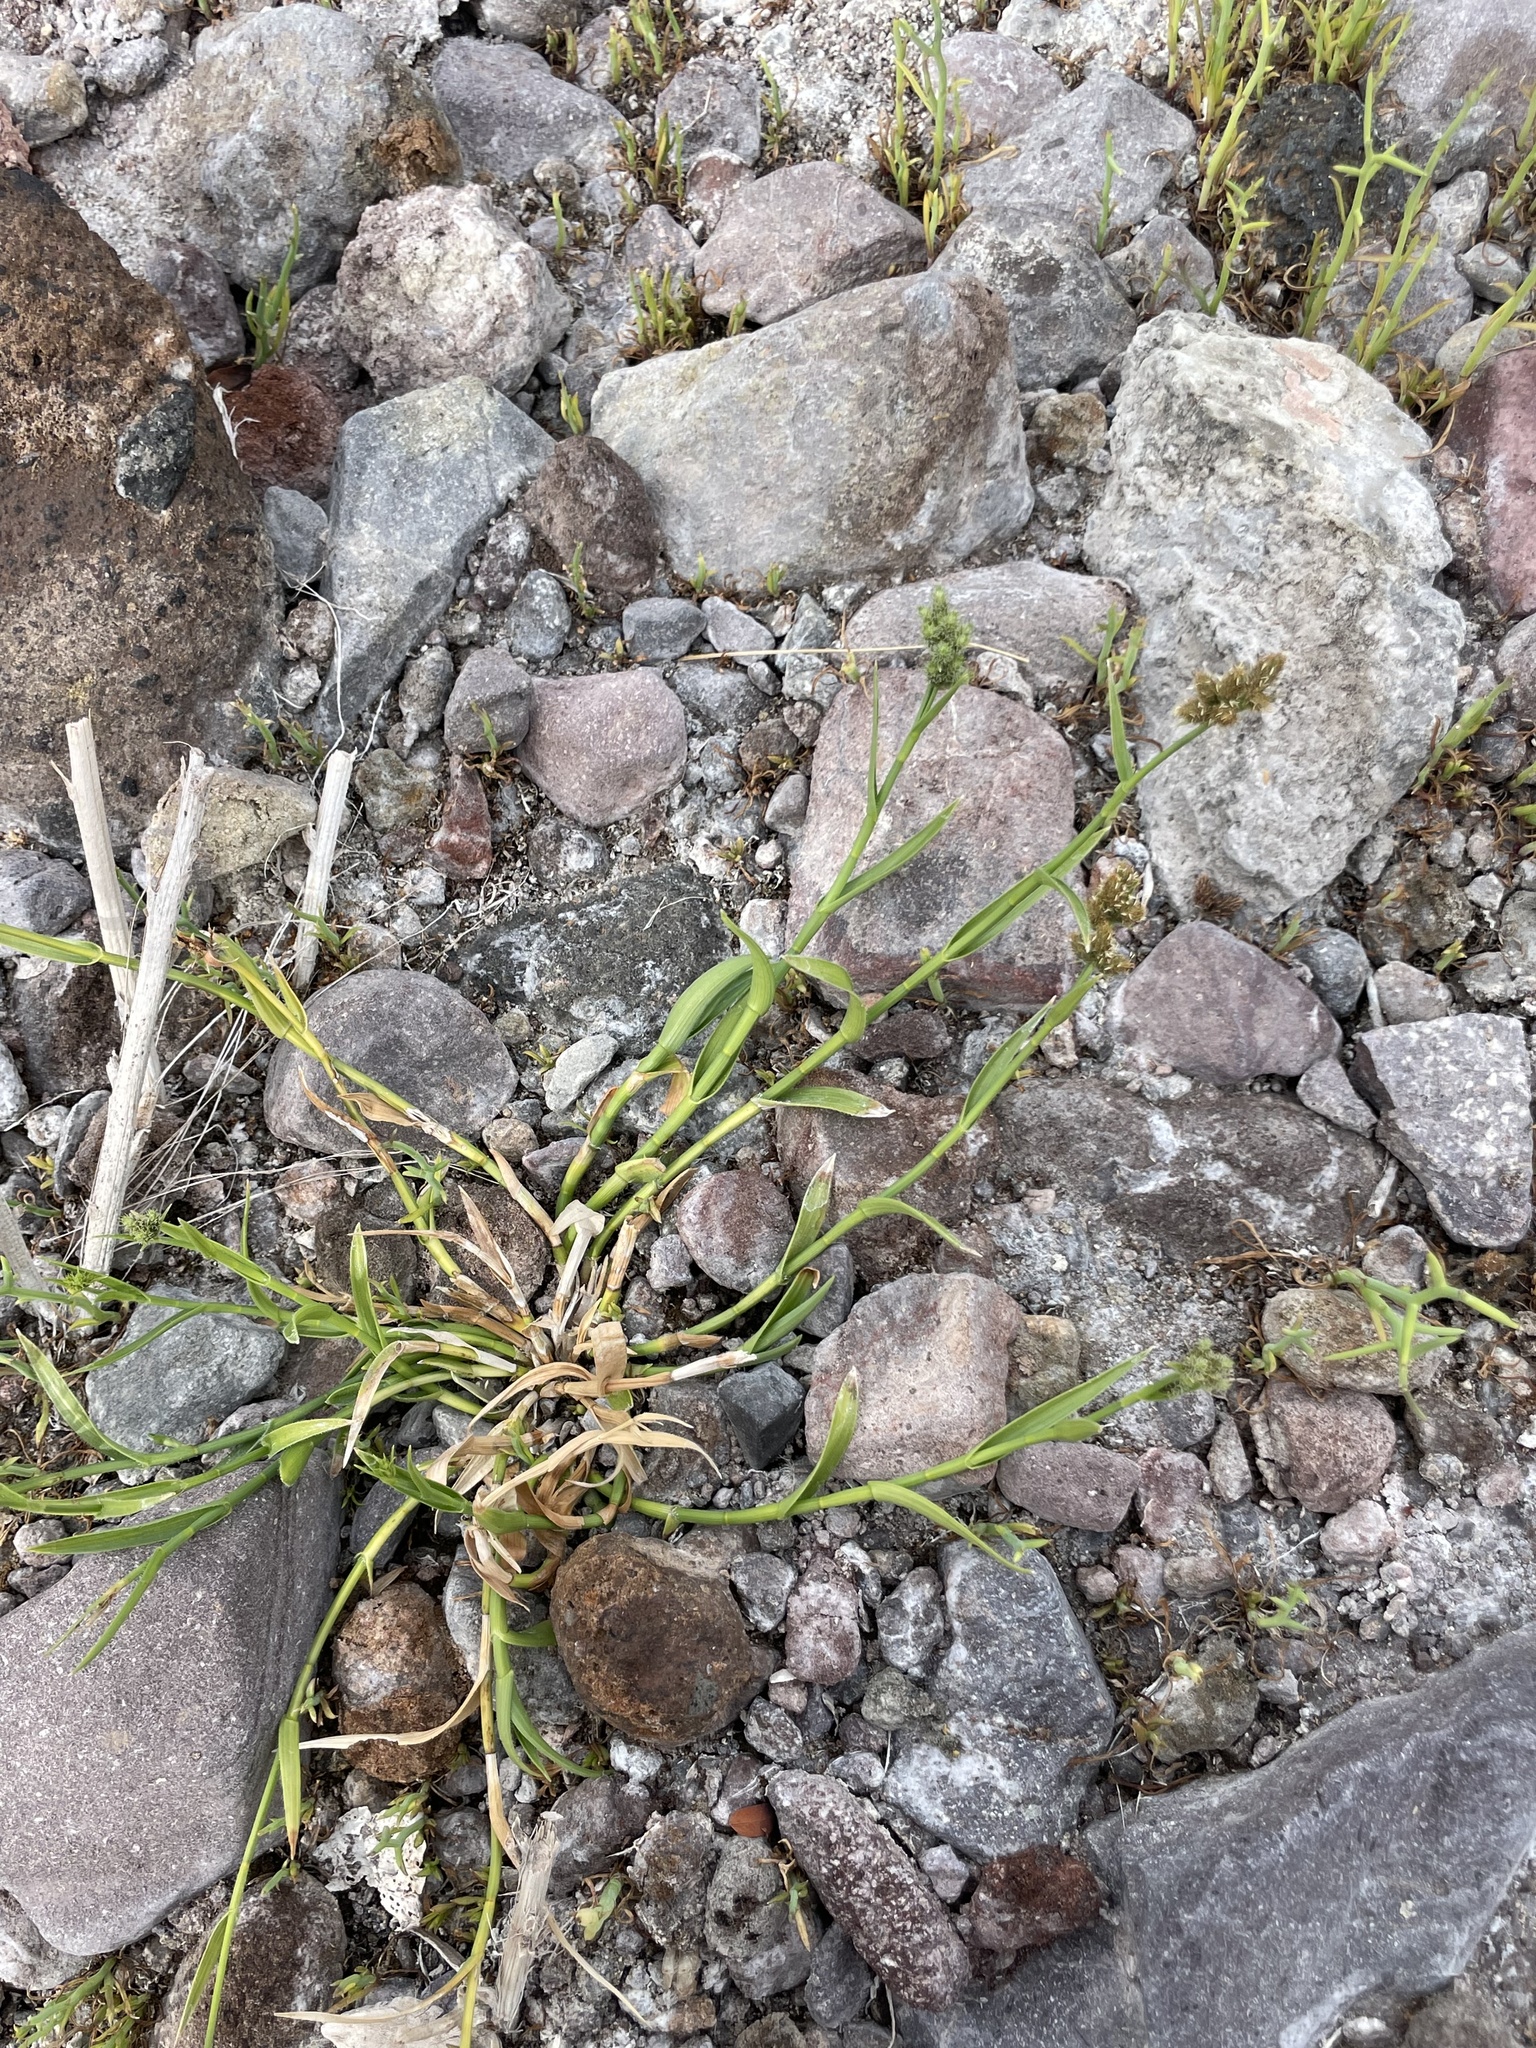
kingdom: Plantae
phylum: Tracheophyta
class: Liliopsida
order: Poales
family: Cyperaceae
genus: Fuirena
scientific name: Fuirena simplex
